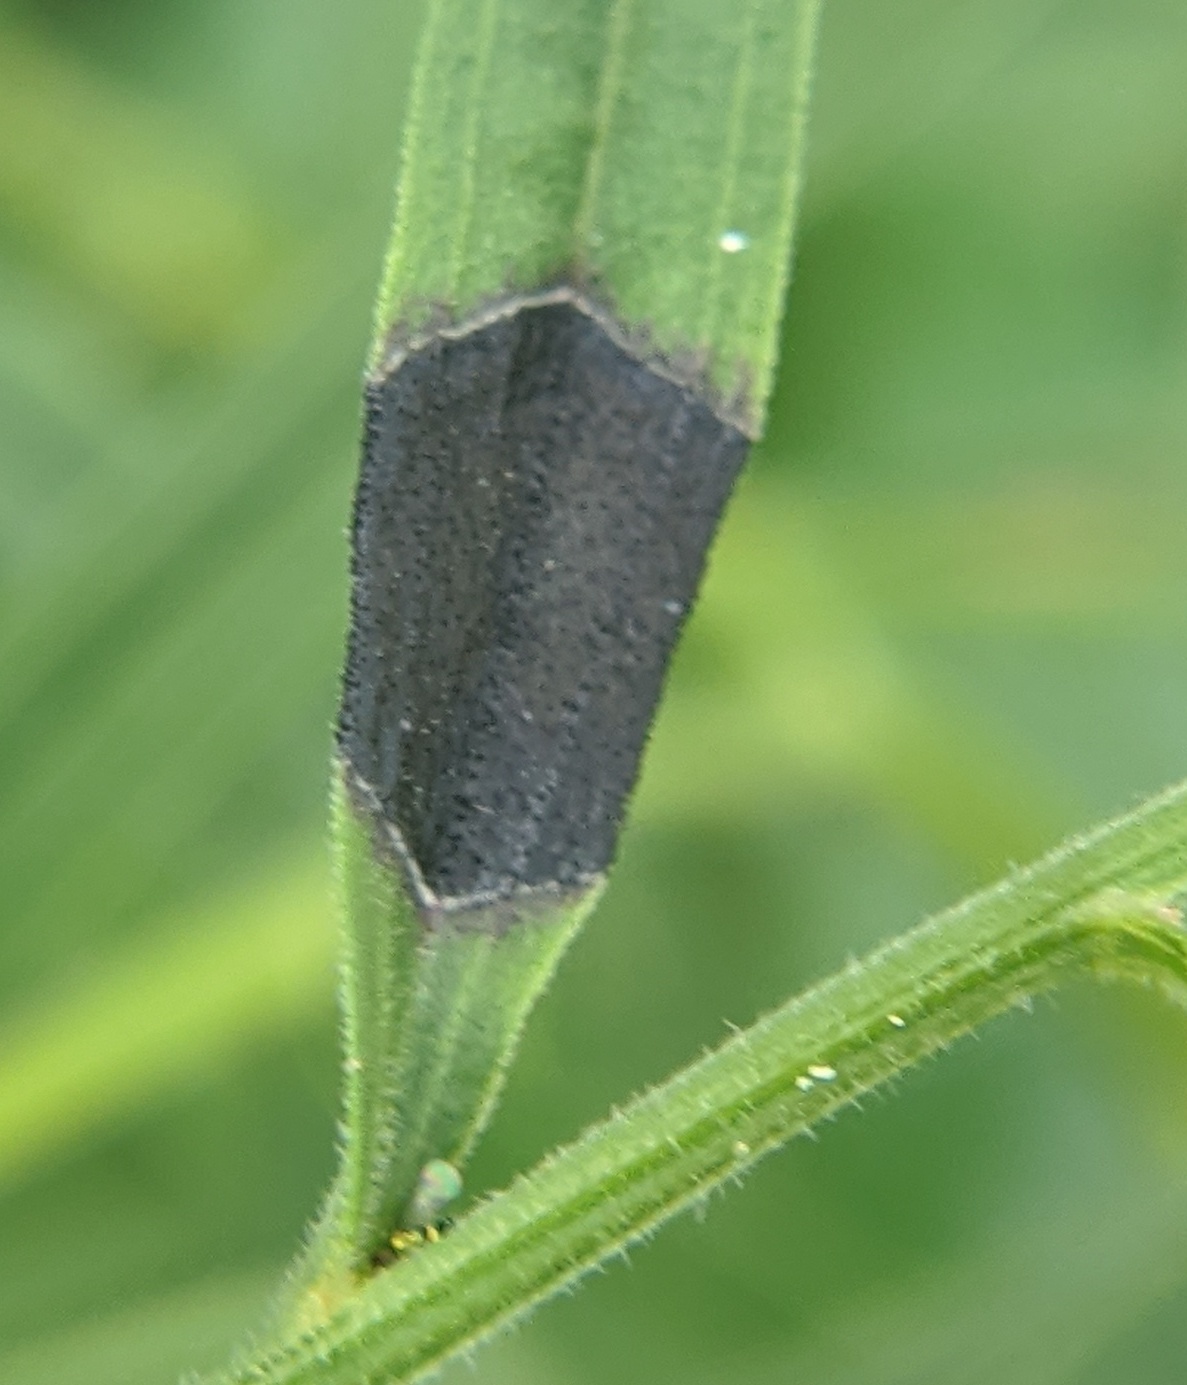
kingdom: Animalia
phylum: Arthropoda
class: Insecta
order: Diptera
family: Cecidomyiidae
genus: Asteromyia
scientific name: Asteromyia euthamiae
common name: Euthamia leaf gall midge
